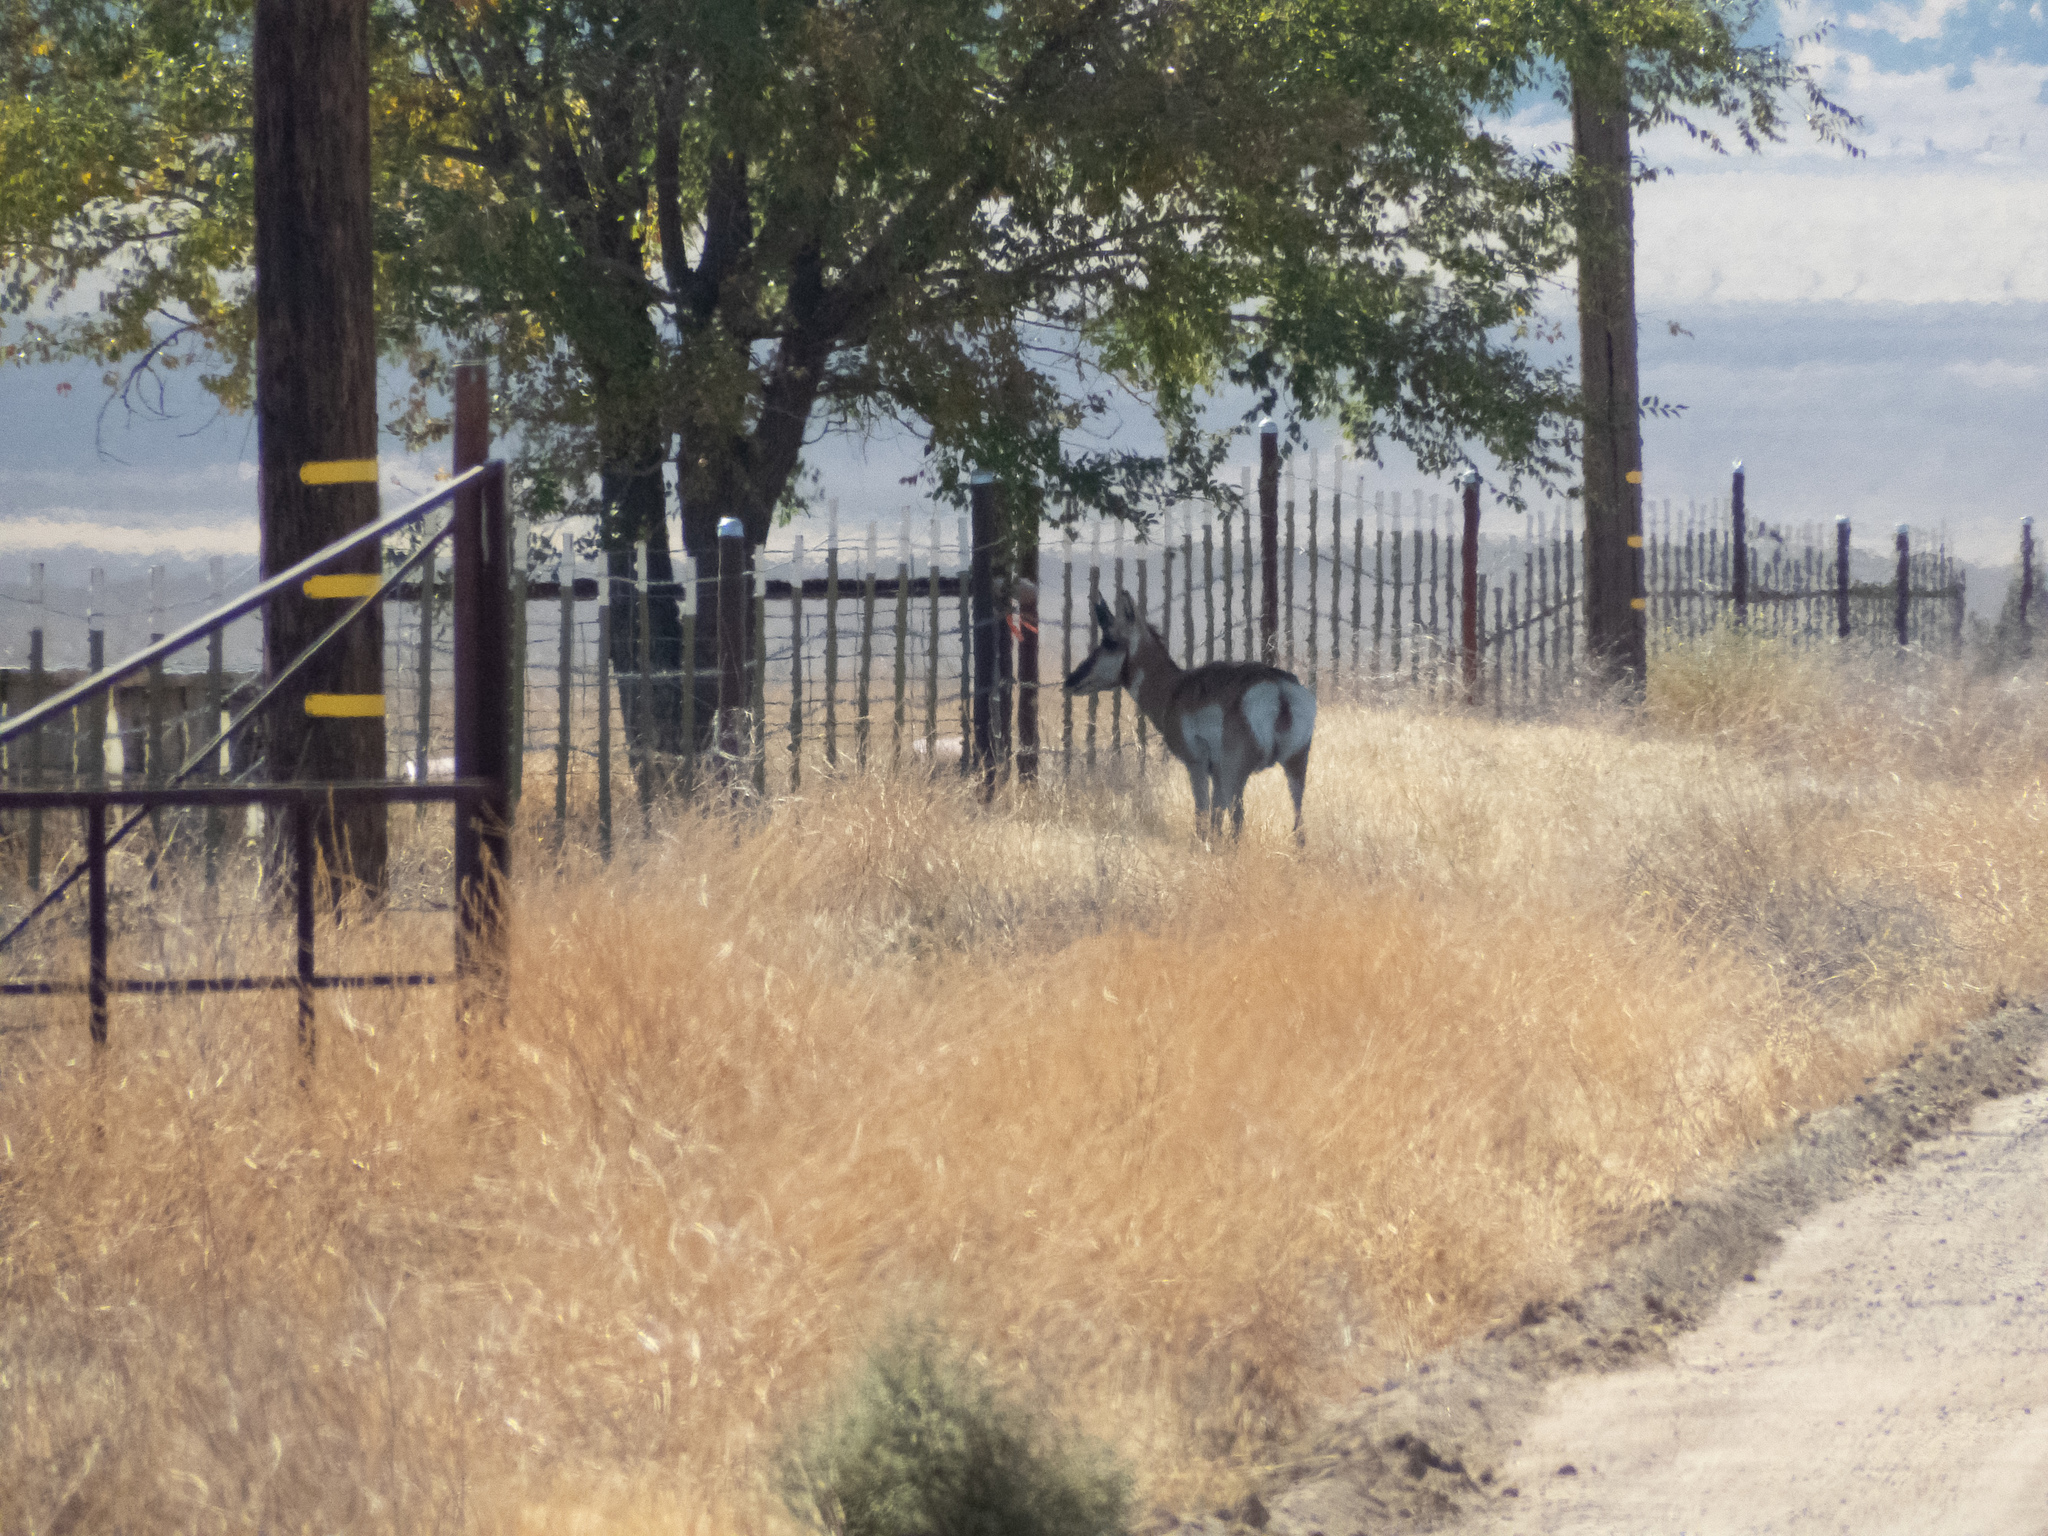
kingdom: Animalia
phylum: Chordata
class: Mammalia
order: Artiodactyla
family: Antilocapridae
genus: Antilocapra
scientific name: Antilocapra americana
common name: Pronghorn
